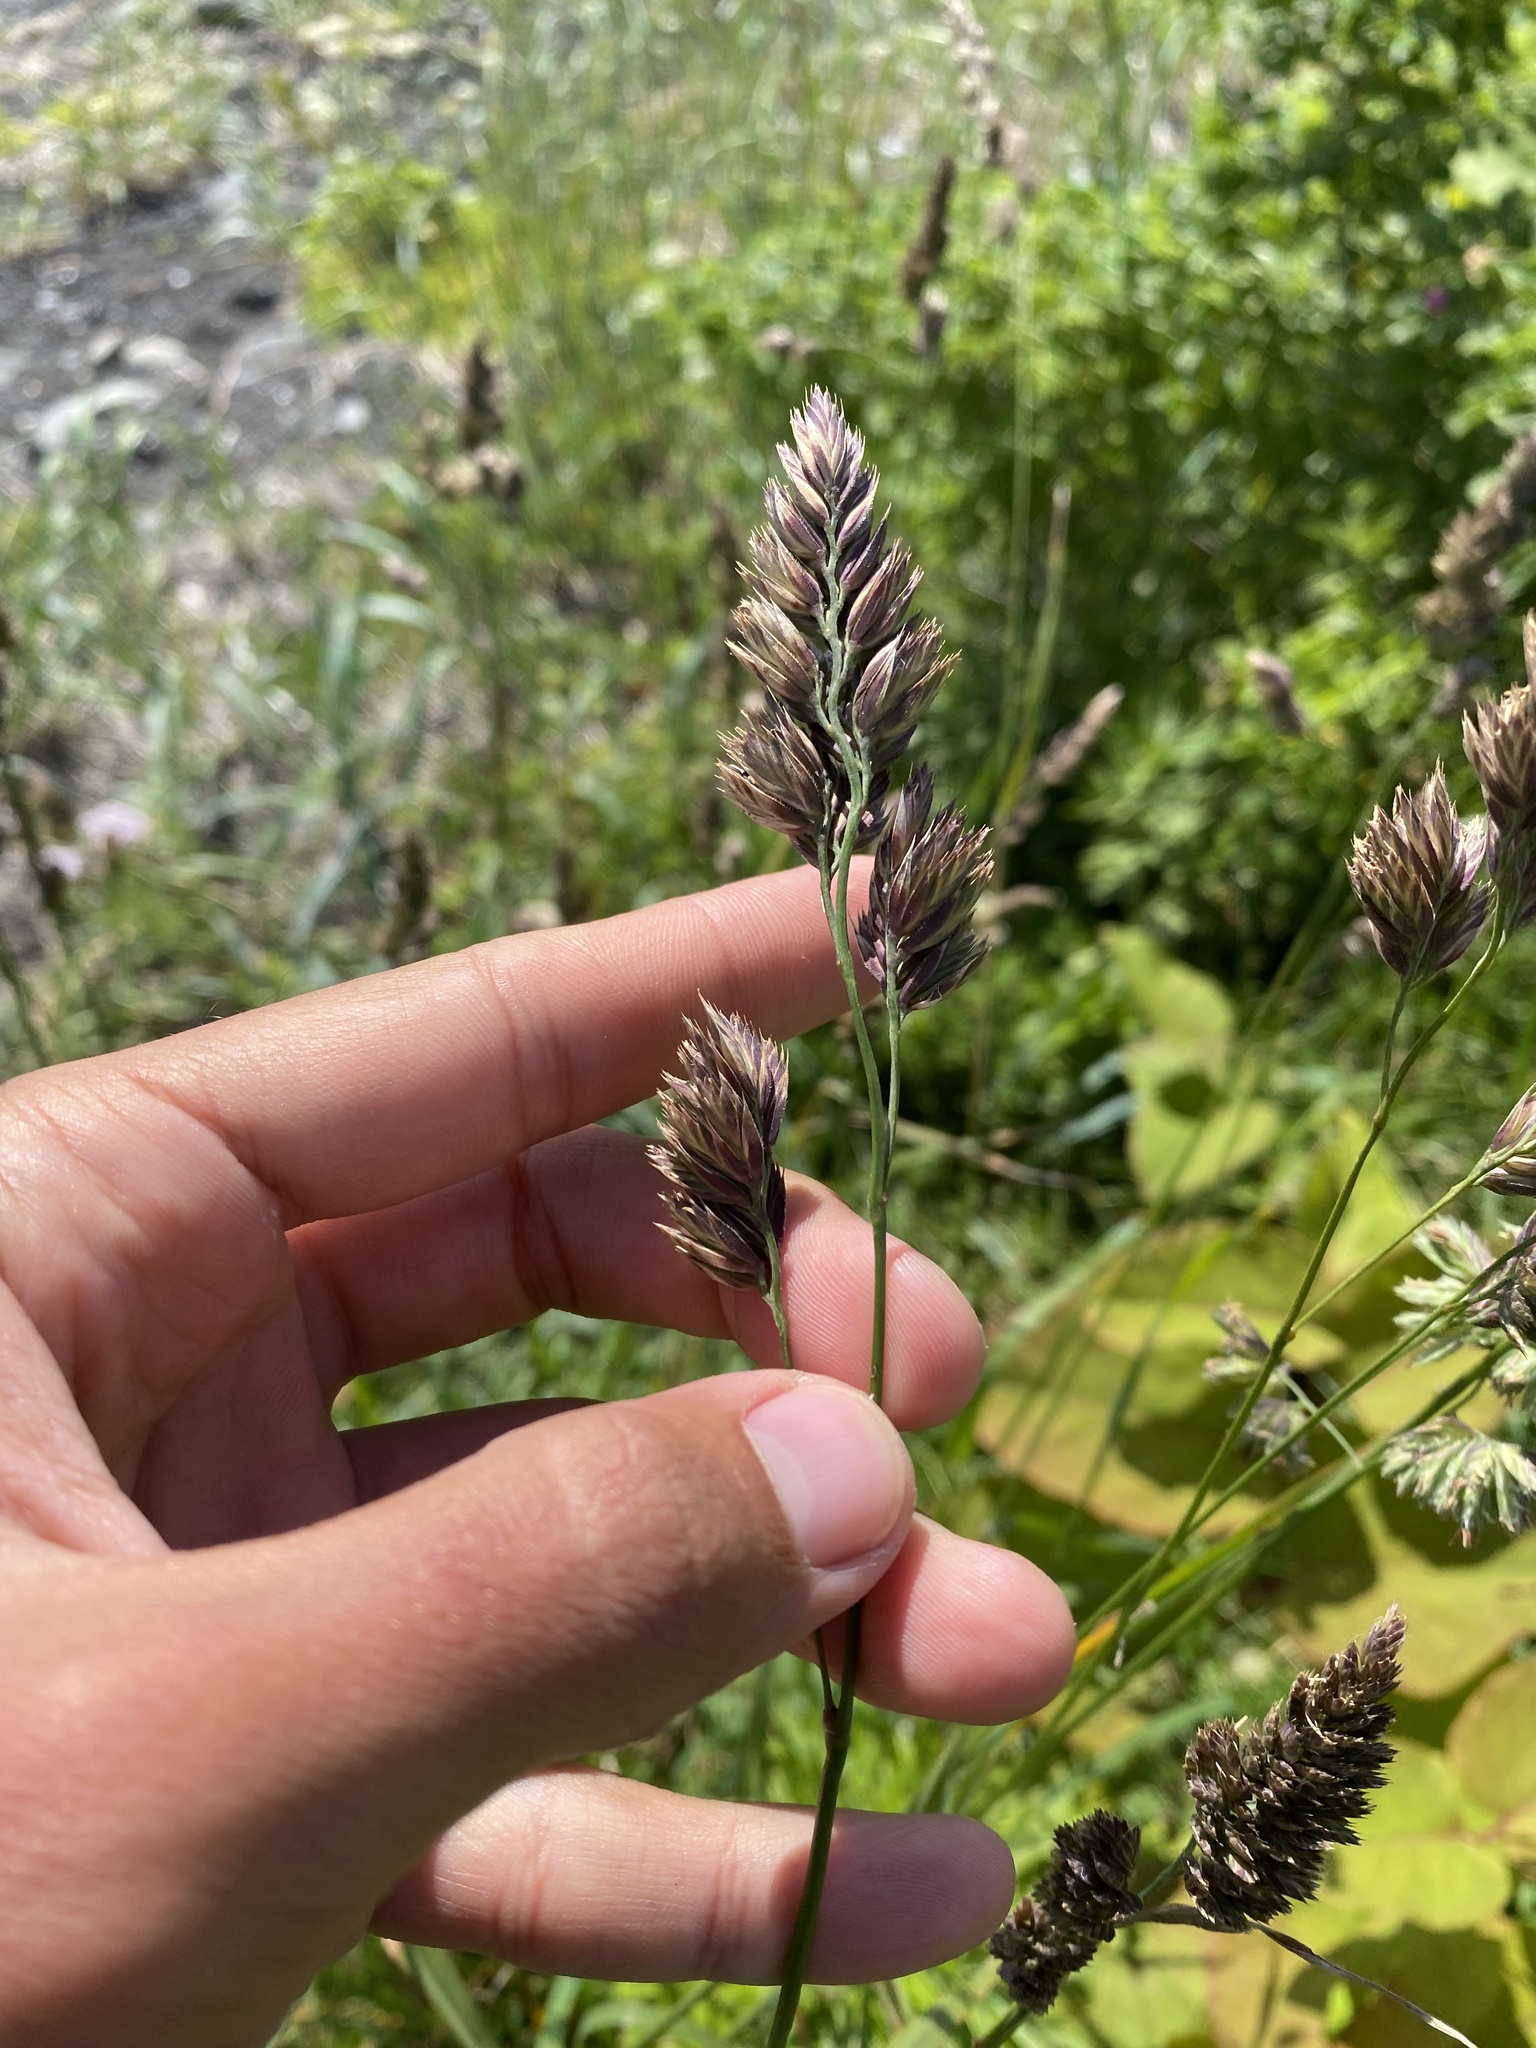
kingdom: Plantae
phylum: Tracheophyta
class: Liliopsida
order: Poales
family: Poaceae
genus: Dactylis
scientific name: Dactylis glomerata
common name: Orchardgrass
